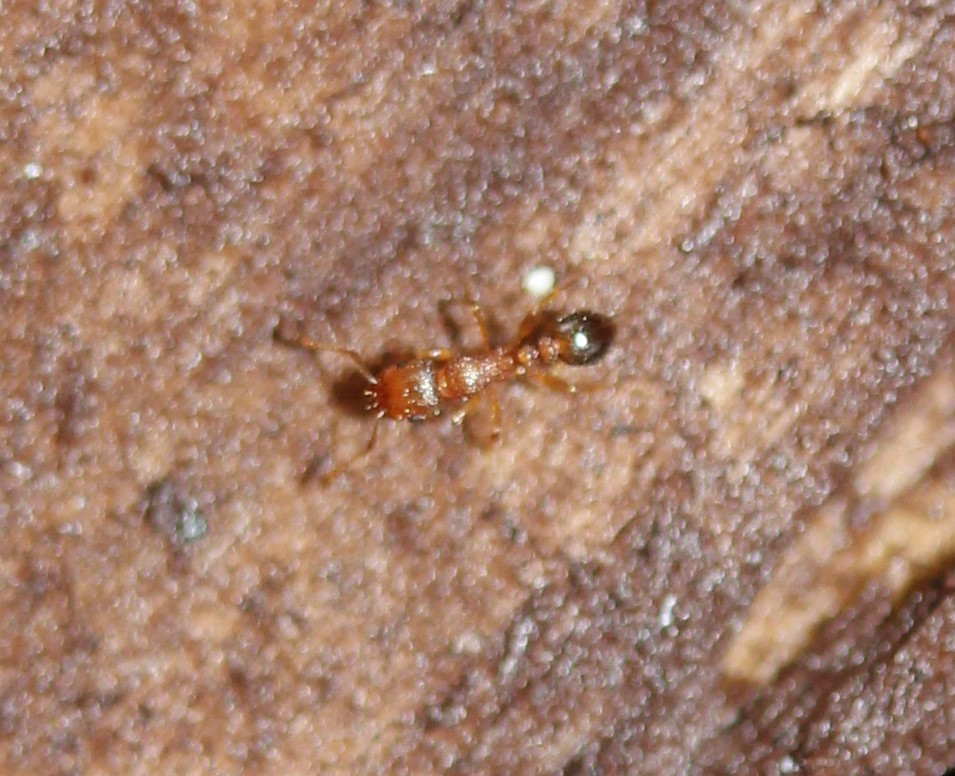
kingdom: Animalia
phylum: Arthropoda
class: Insecta
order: Hymenoptera
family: Formicidae
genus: Tetramorium
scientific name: Tetramorium bicarinatum
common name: Guinea ant
